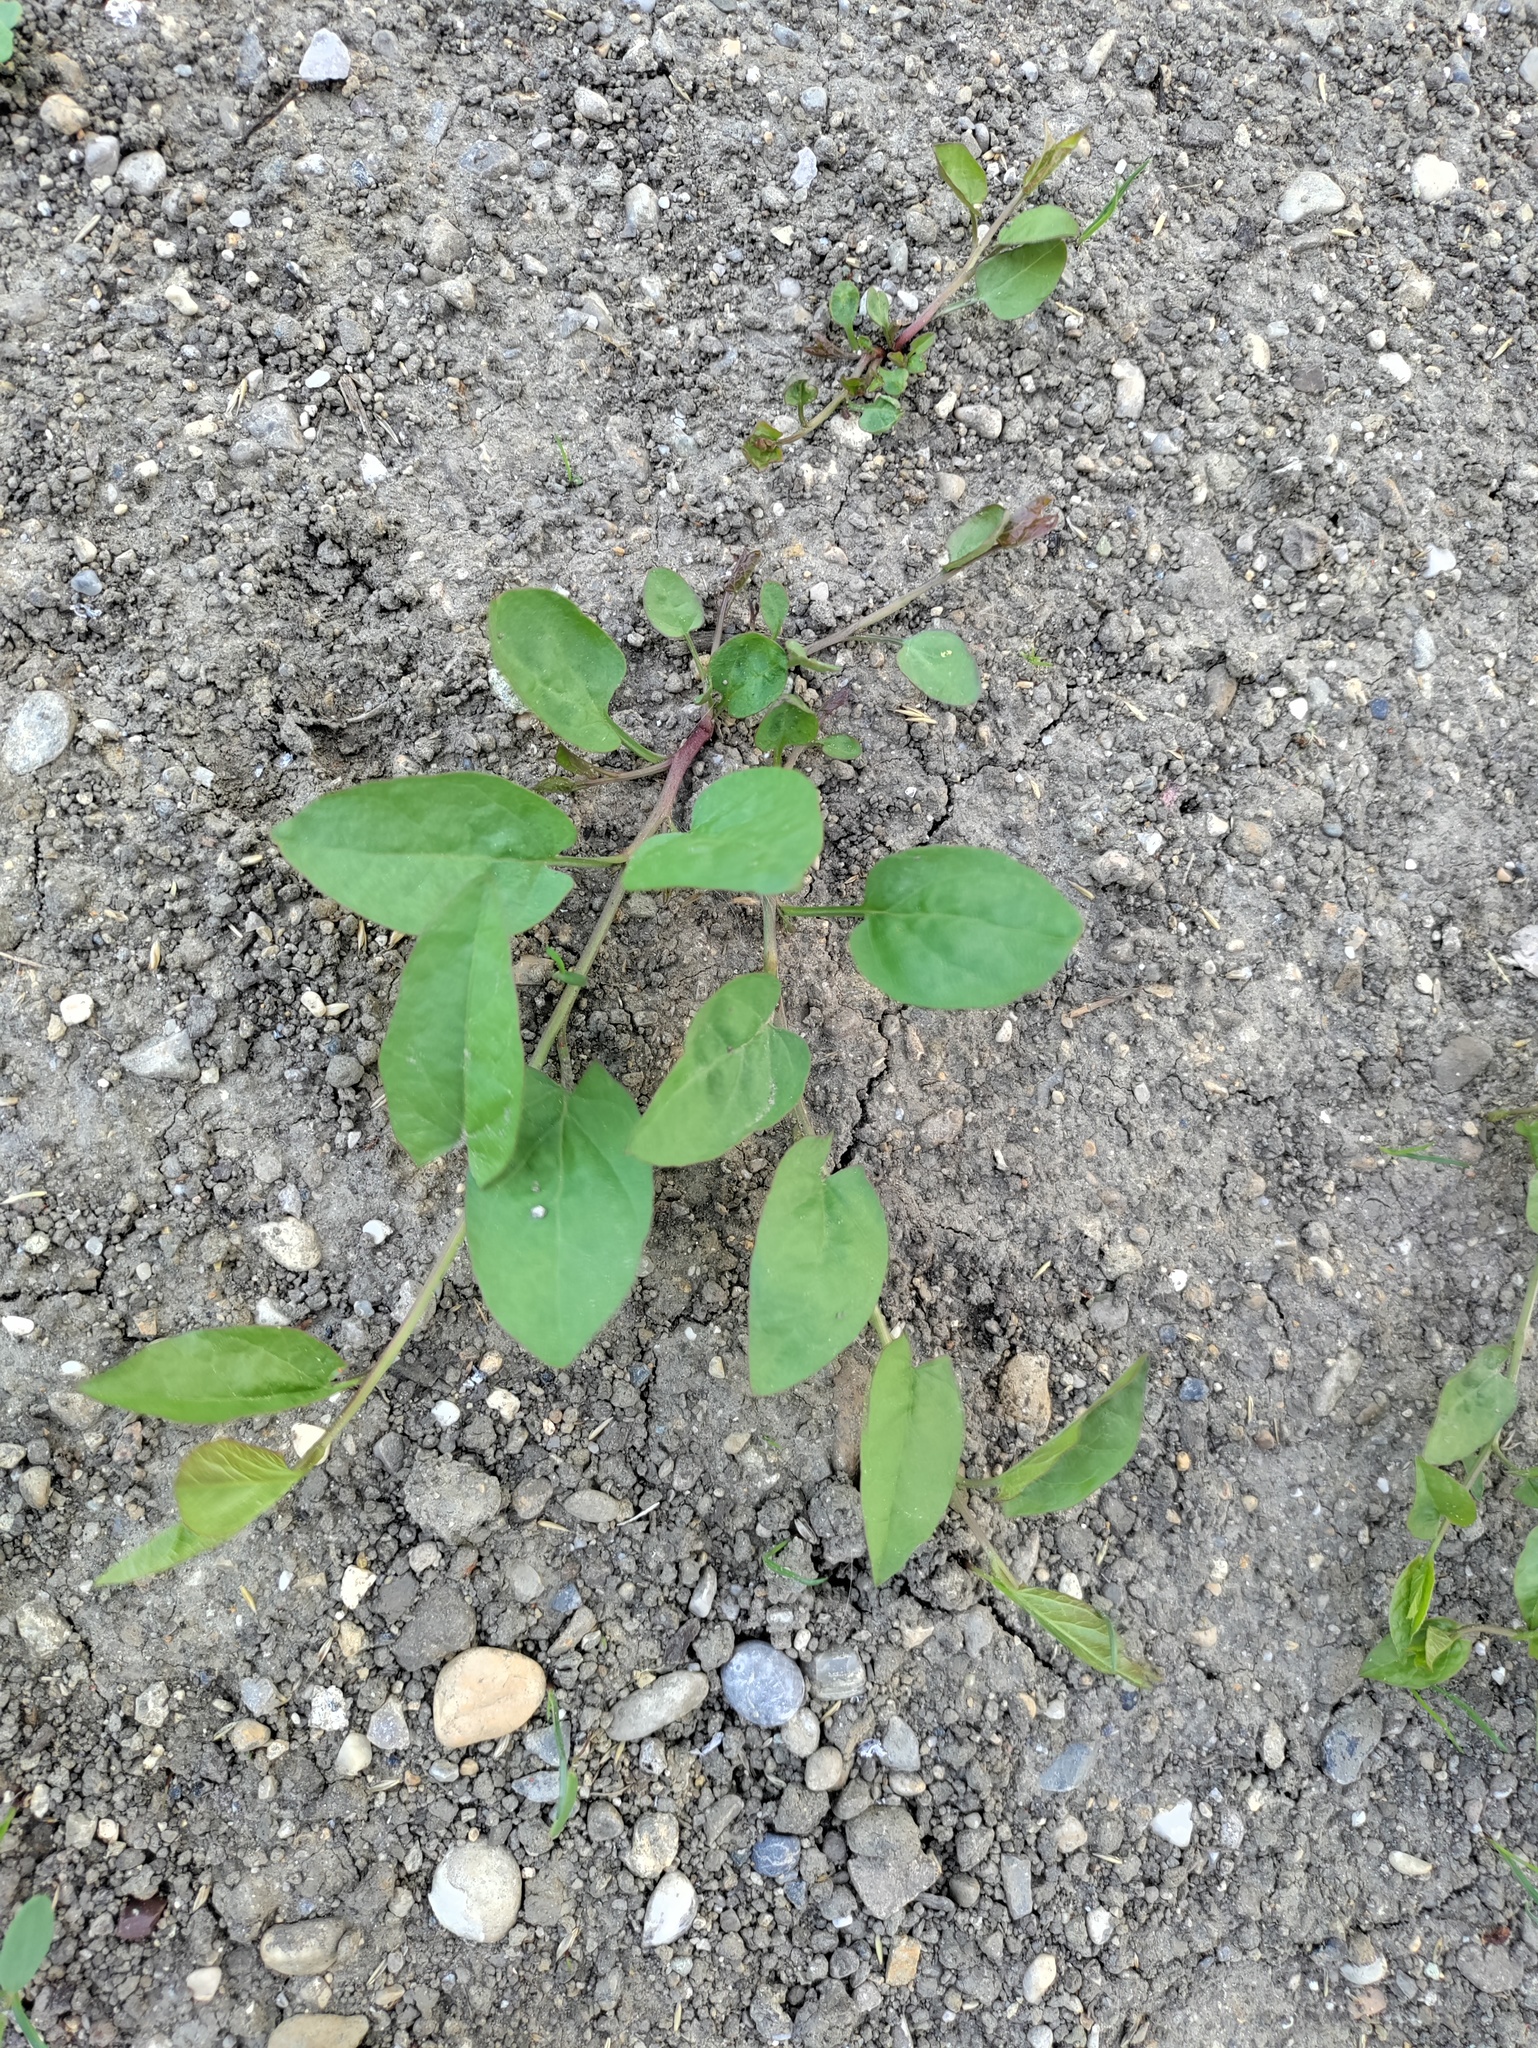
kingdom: Plantae
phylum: Tracheophyta
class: Magnoliopsida
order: Solanales
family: Convolvulaceae
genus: Convolvulus
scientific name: Convolvulus arvensis
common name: Field bindweed
